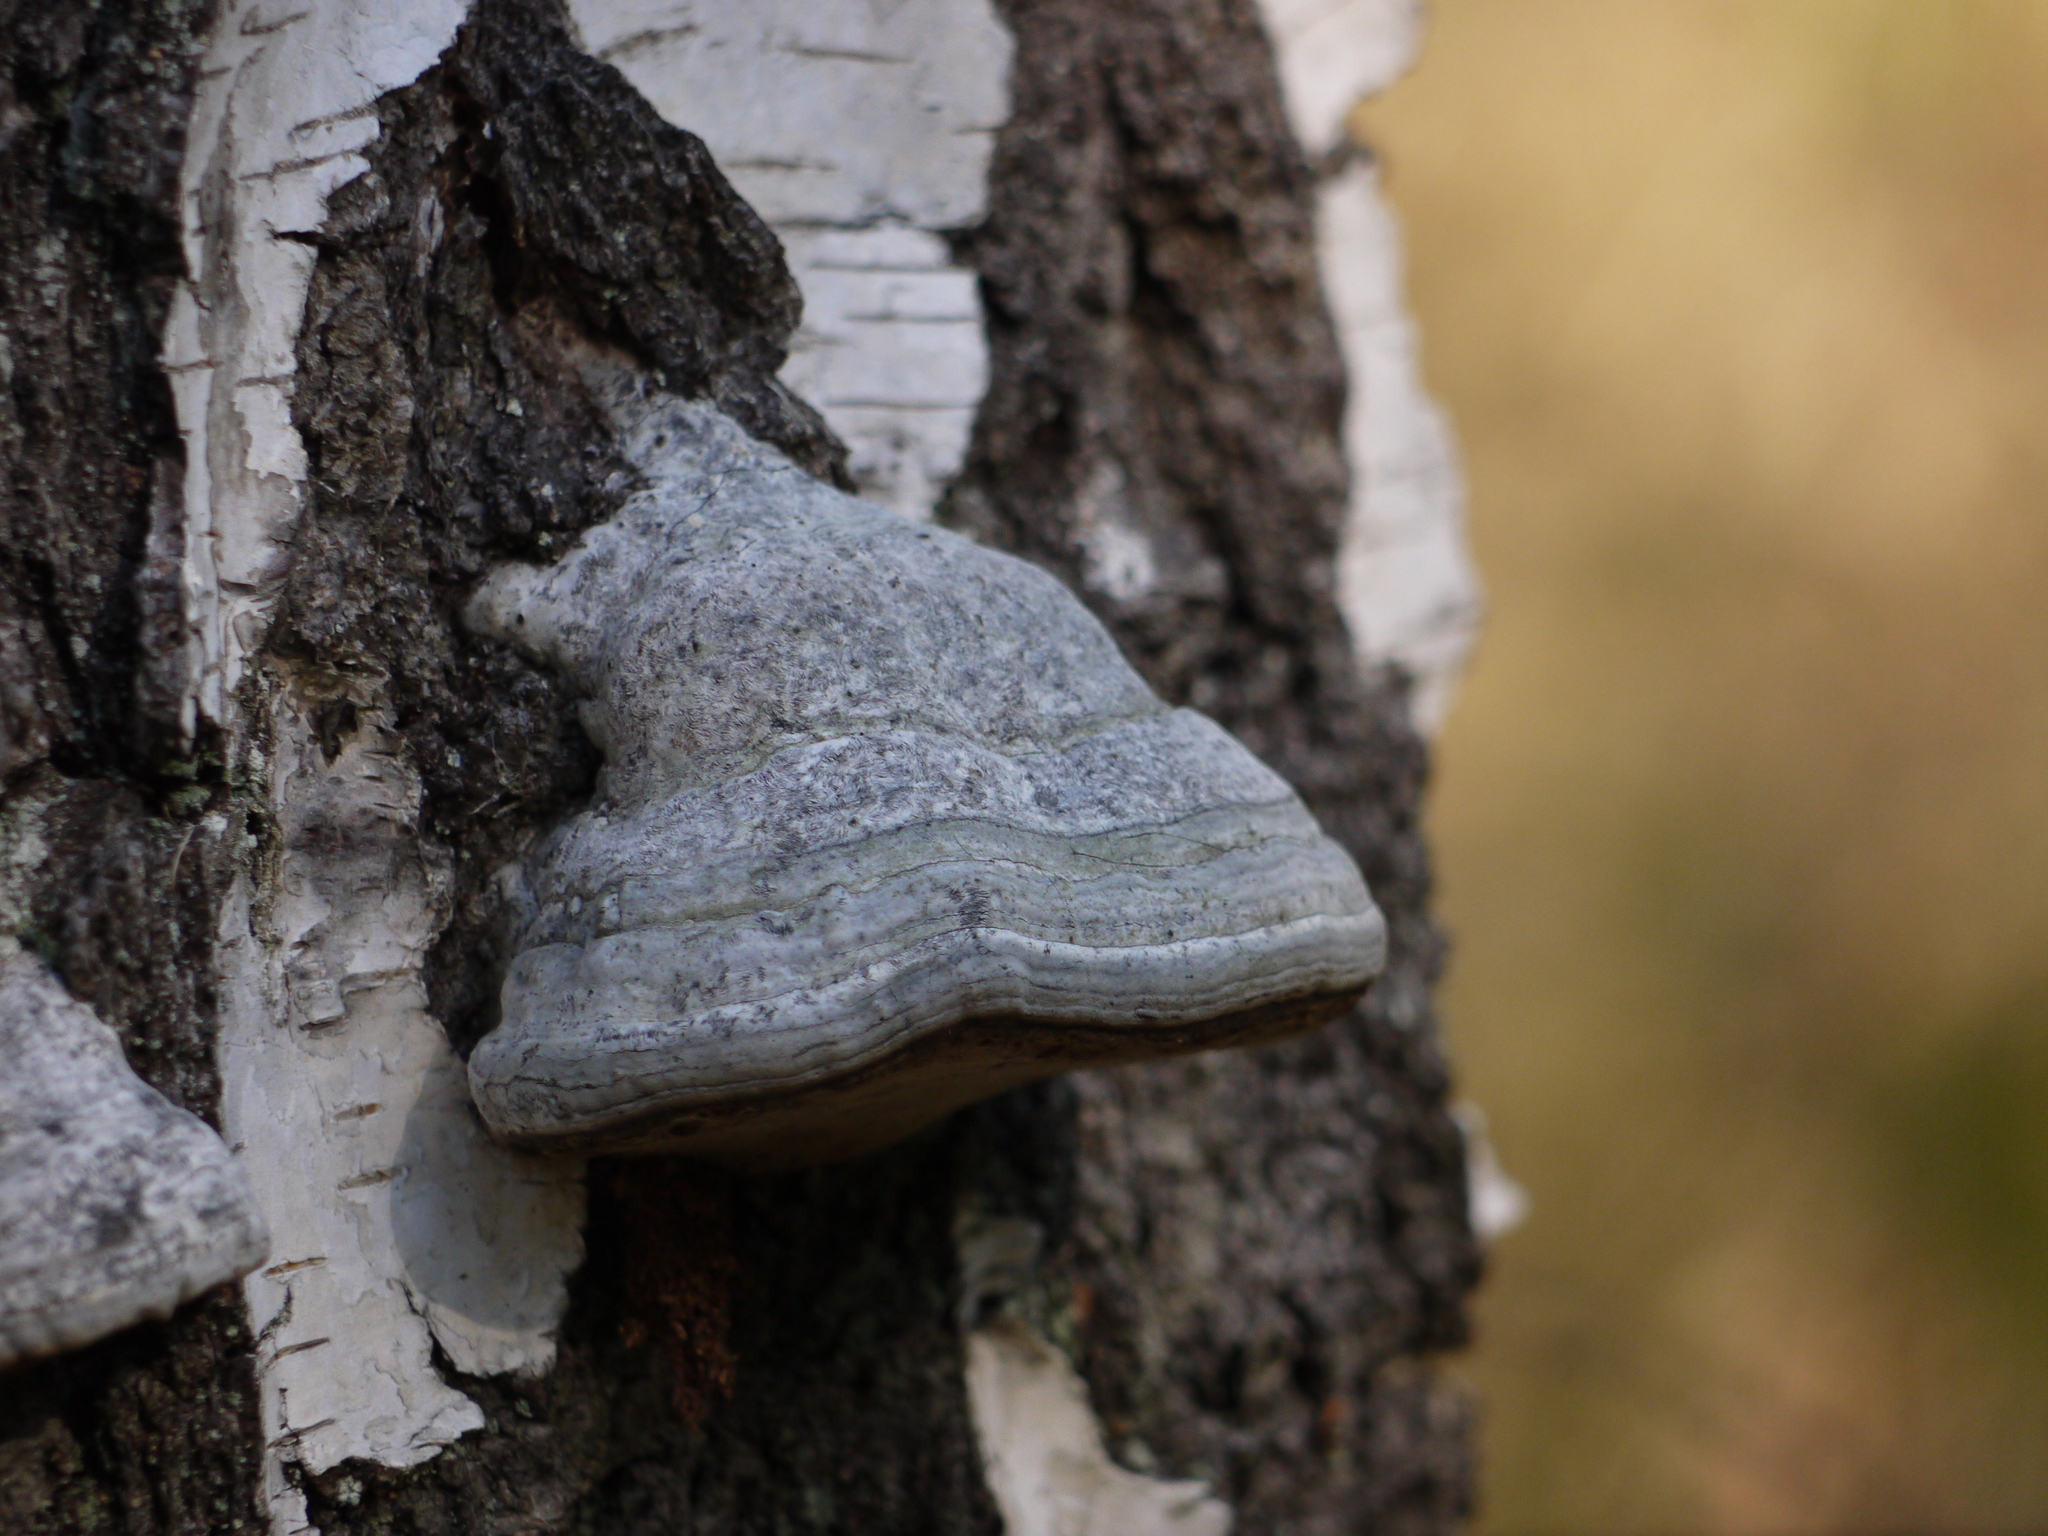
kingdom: Fungi
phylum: Basidiomycota
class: Agaricomycetes
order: Polyporales
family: Fomitopsidaceae
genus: Fomitopsis
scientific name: Fomitopsis betulina
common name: Birch polypore
